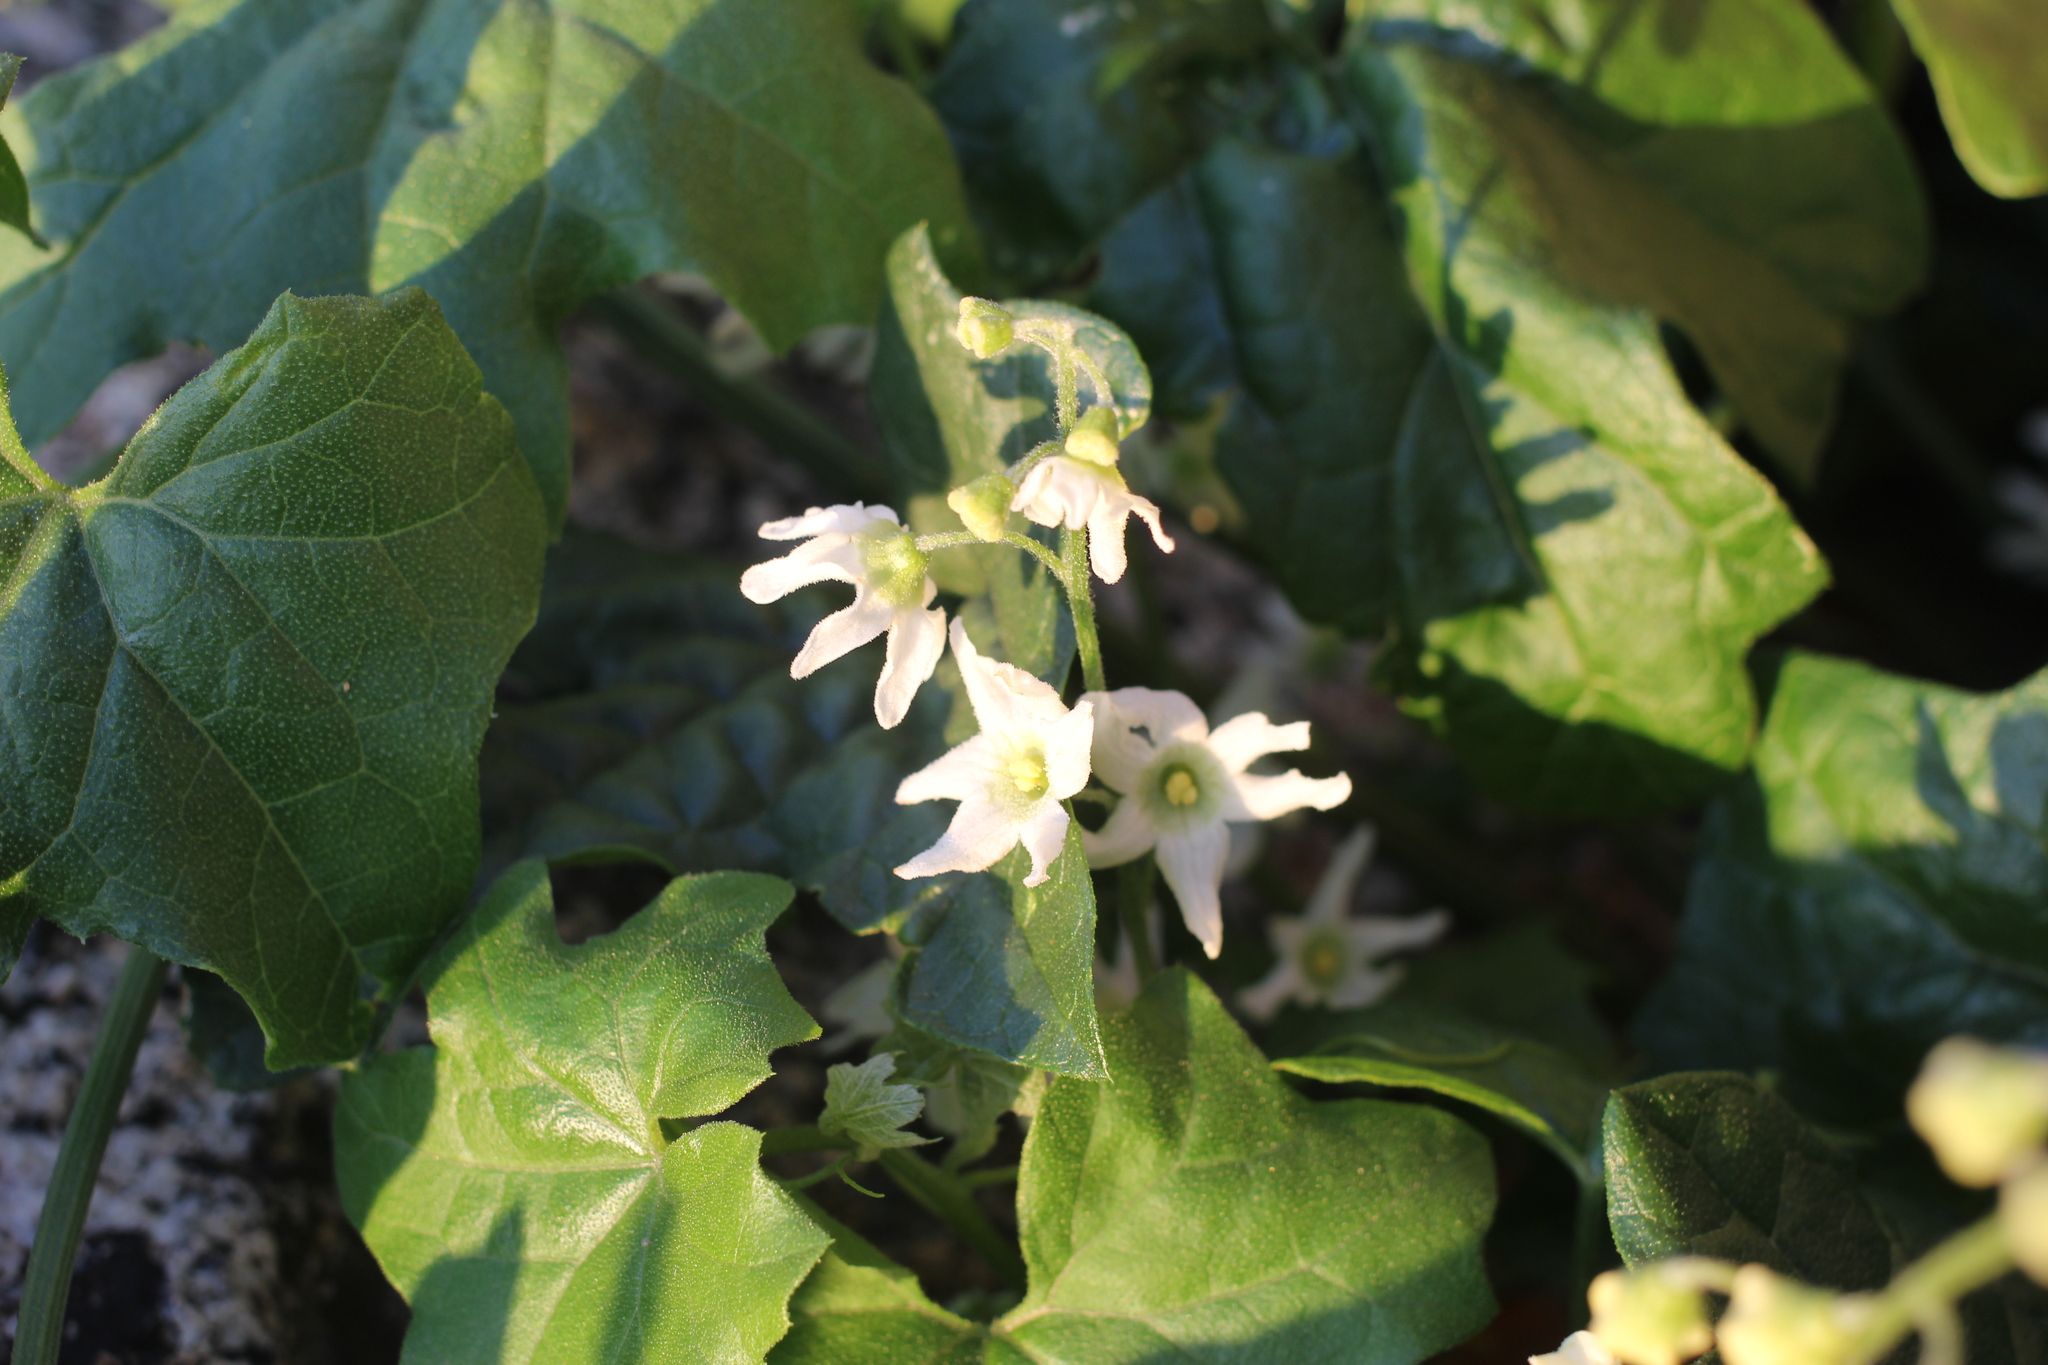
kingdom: Plantae
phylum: Tracheophyta
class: Magnoliopsida
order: Cucurbitales
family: Cucurbitaceae
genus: Marah
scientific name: Marah macrocarpa
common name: Cucamonga manroot
